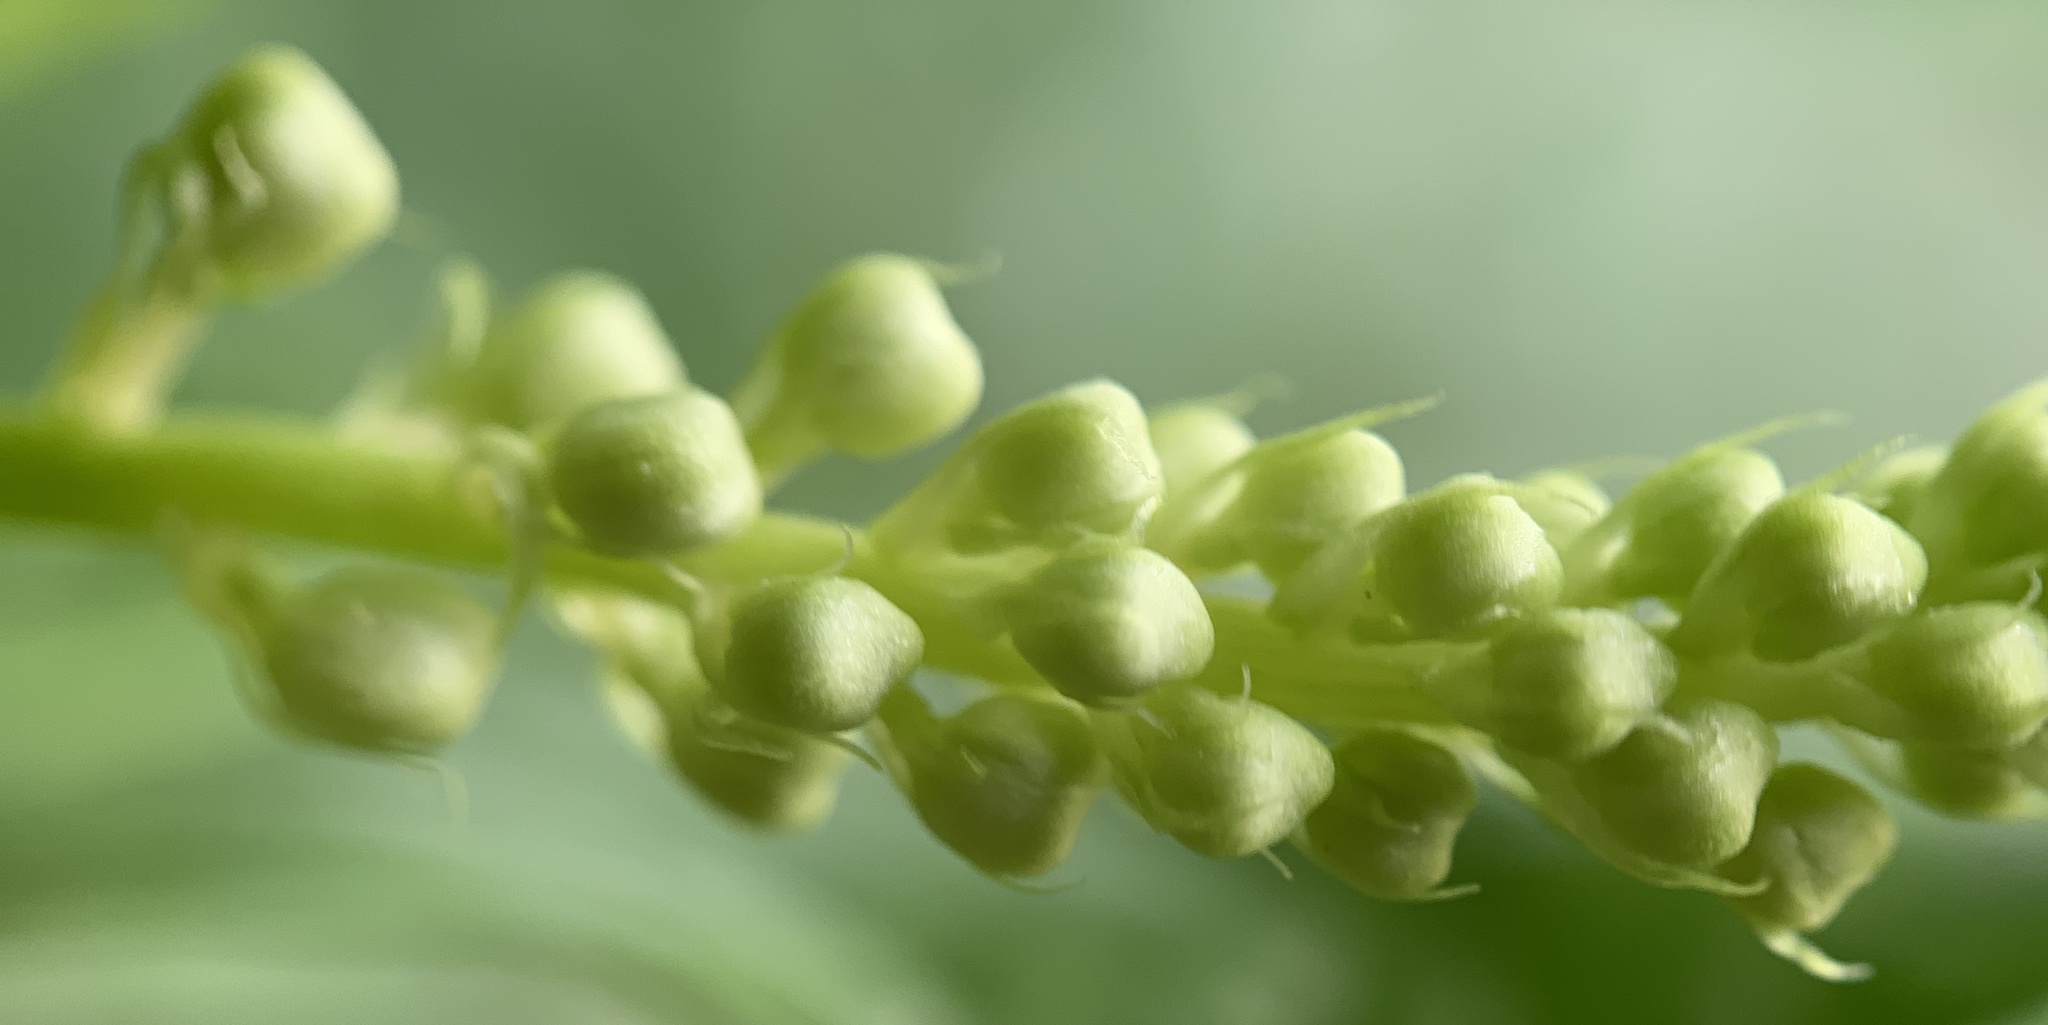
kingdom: Plantae
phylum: Tracheophyta
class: Magnoliopsida
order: Caryophyllales
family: Phytolaccaceae
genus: Phytolacca
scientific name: Phytolacca americana
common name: American pokeweed
